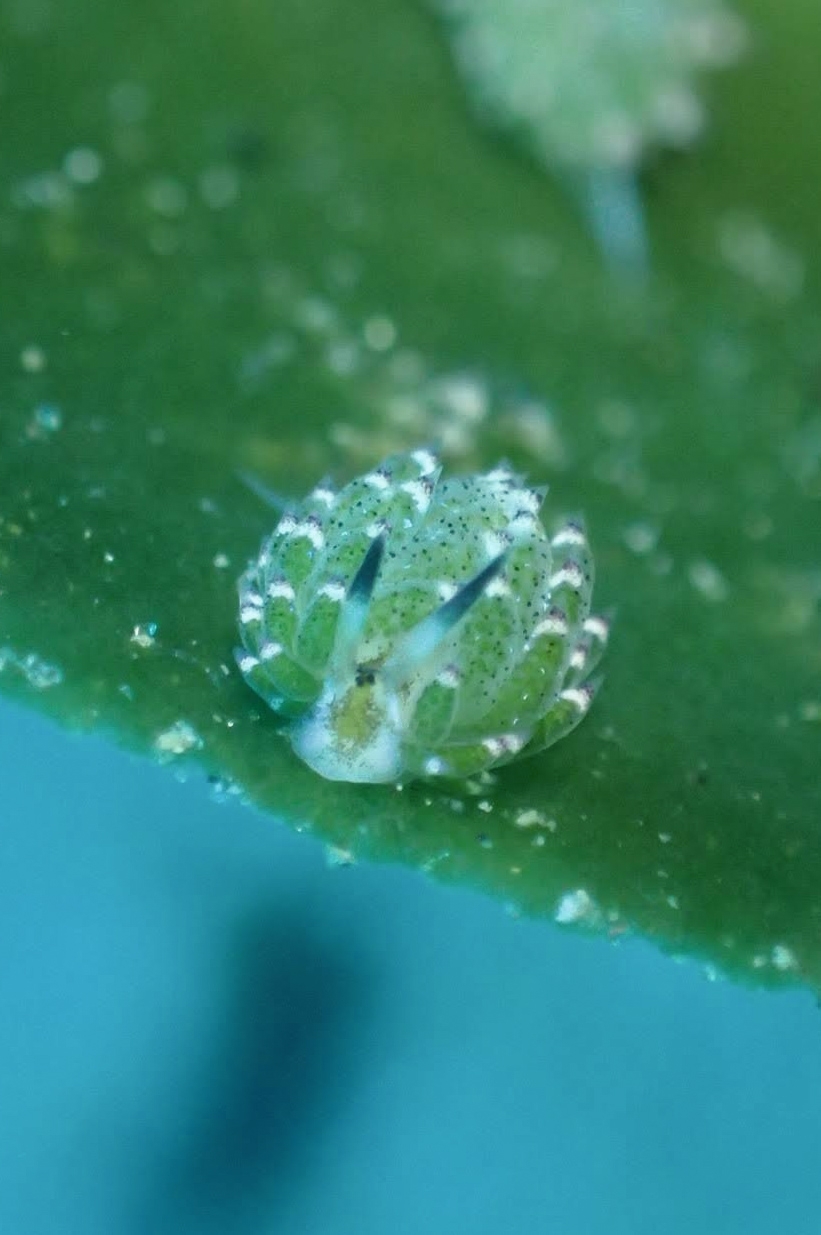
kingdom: Animalia
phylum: Mollusca
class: Gastropoda
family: Costasiellidae
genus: Costasiella
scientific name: Costasiella kuroshimae
